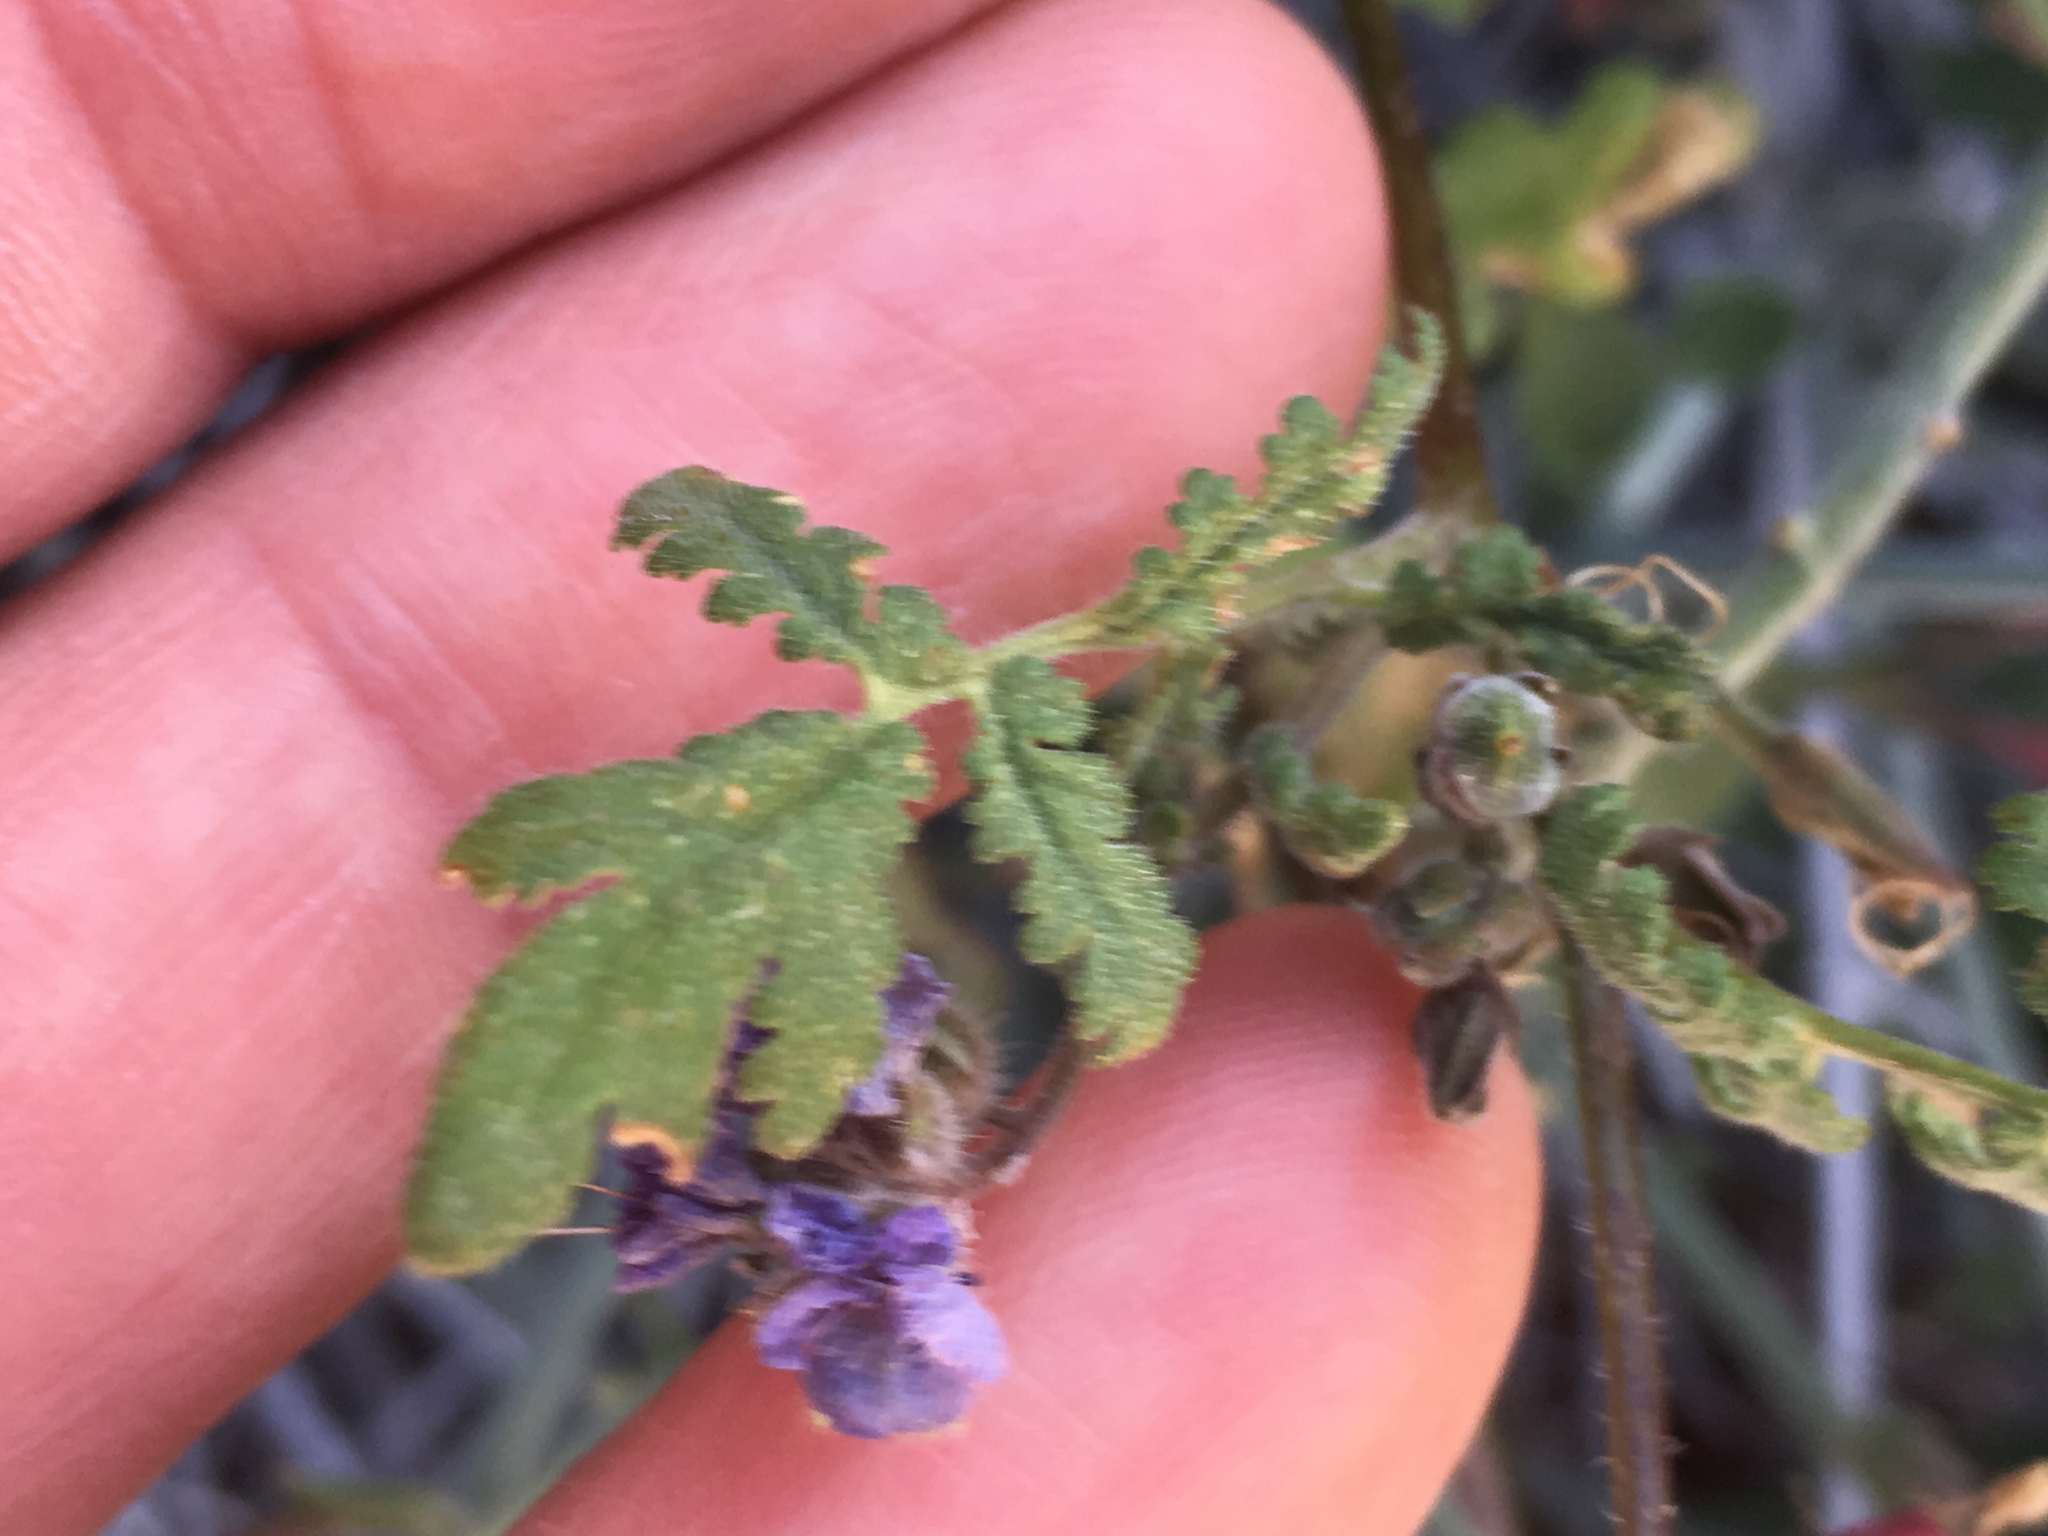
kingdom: Plantae
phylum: Tracheophyta
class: Magnoliopsida
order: Boraginales
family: Hydrophyllaceae
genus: Phacelia
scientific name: Phacelia distans
